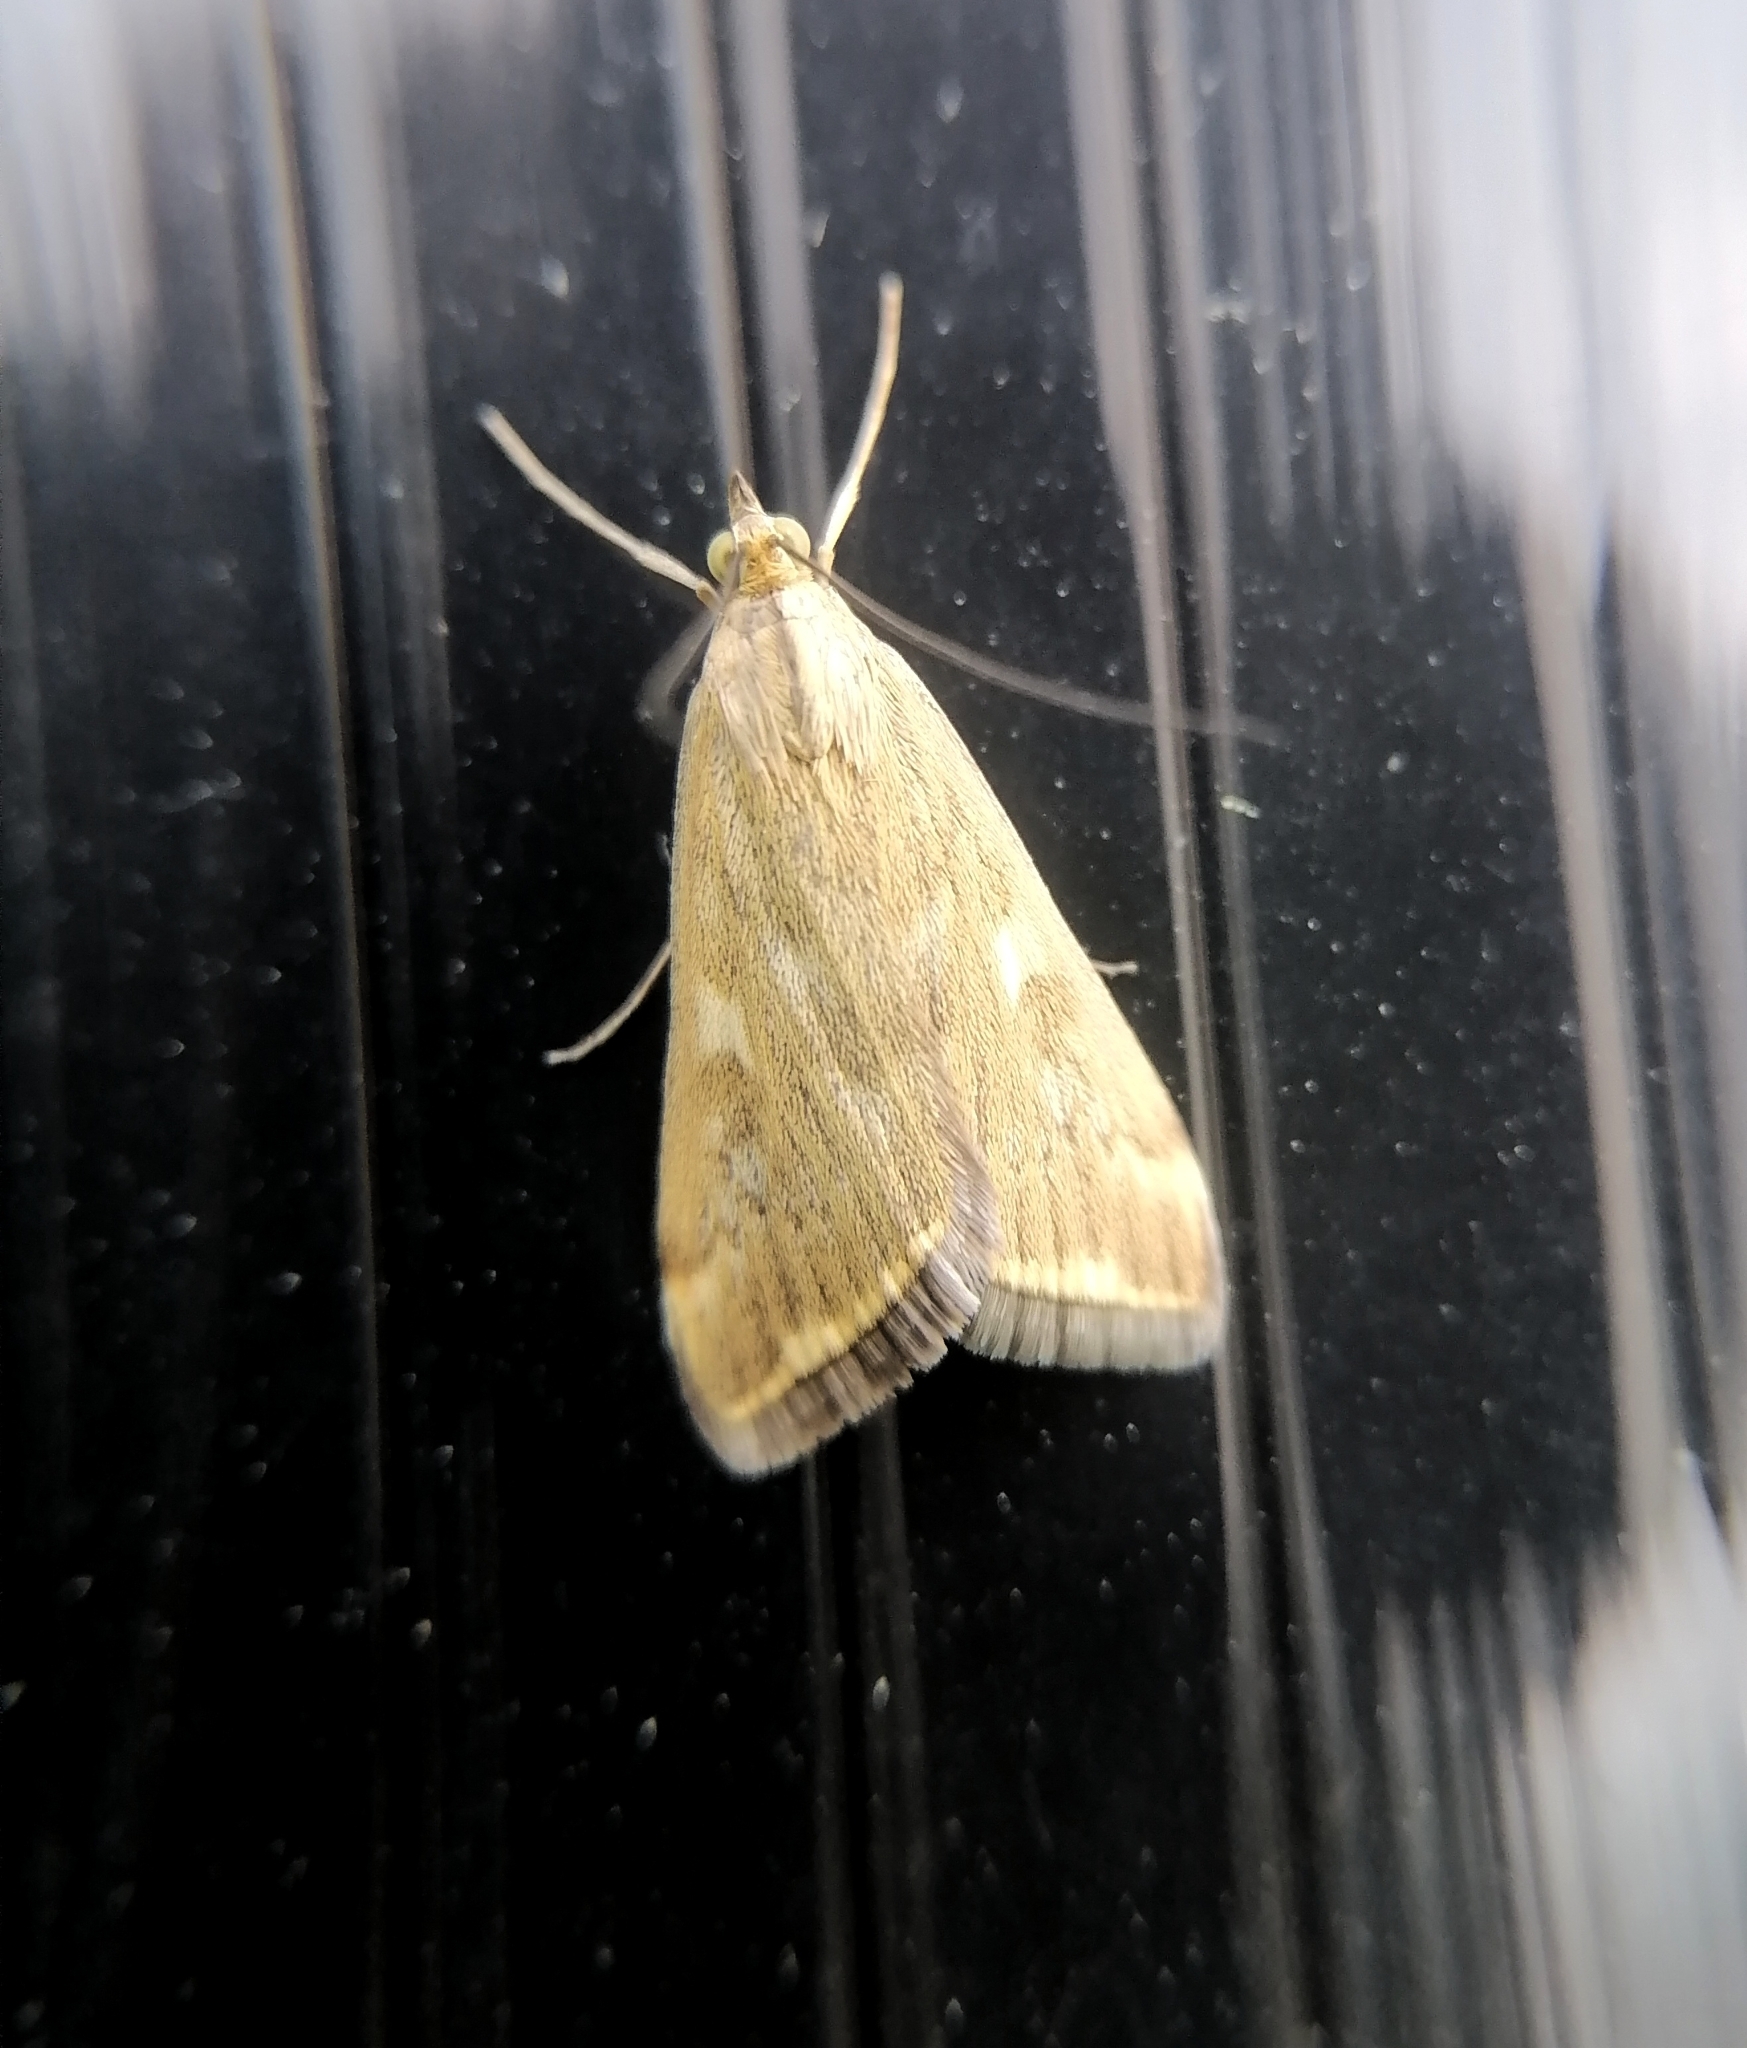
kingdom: Animalia
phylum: Arthropoda
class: Insecta
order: Lepidoptera
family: Crambidae
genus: Loxostege
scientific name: Loxostege sticticalis
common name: Crambid moth
